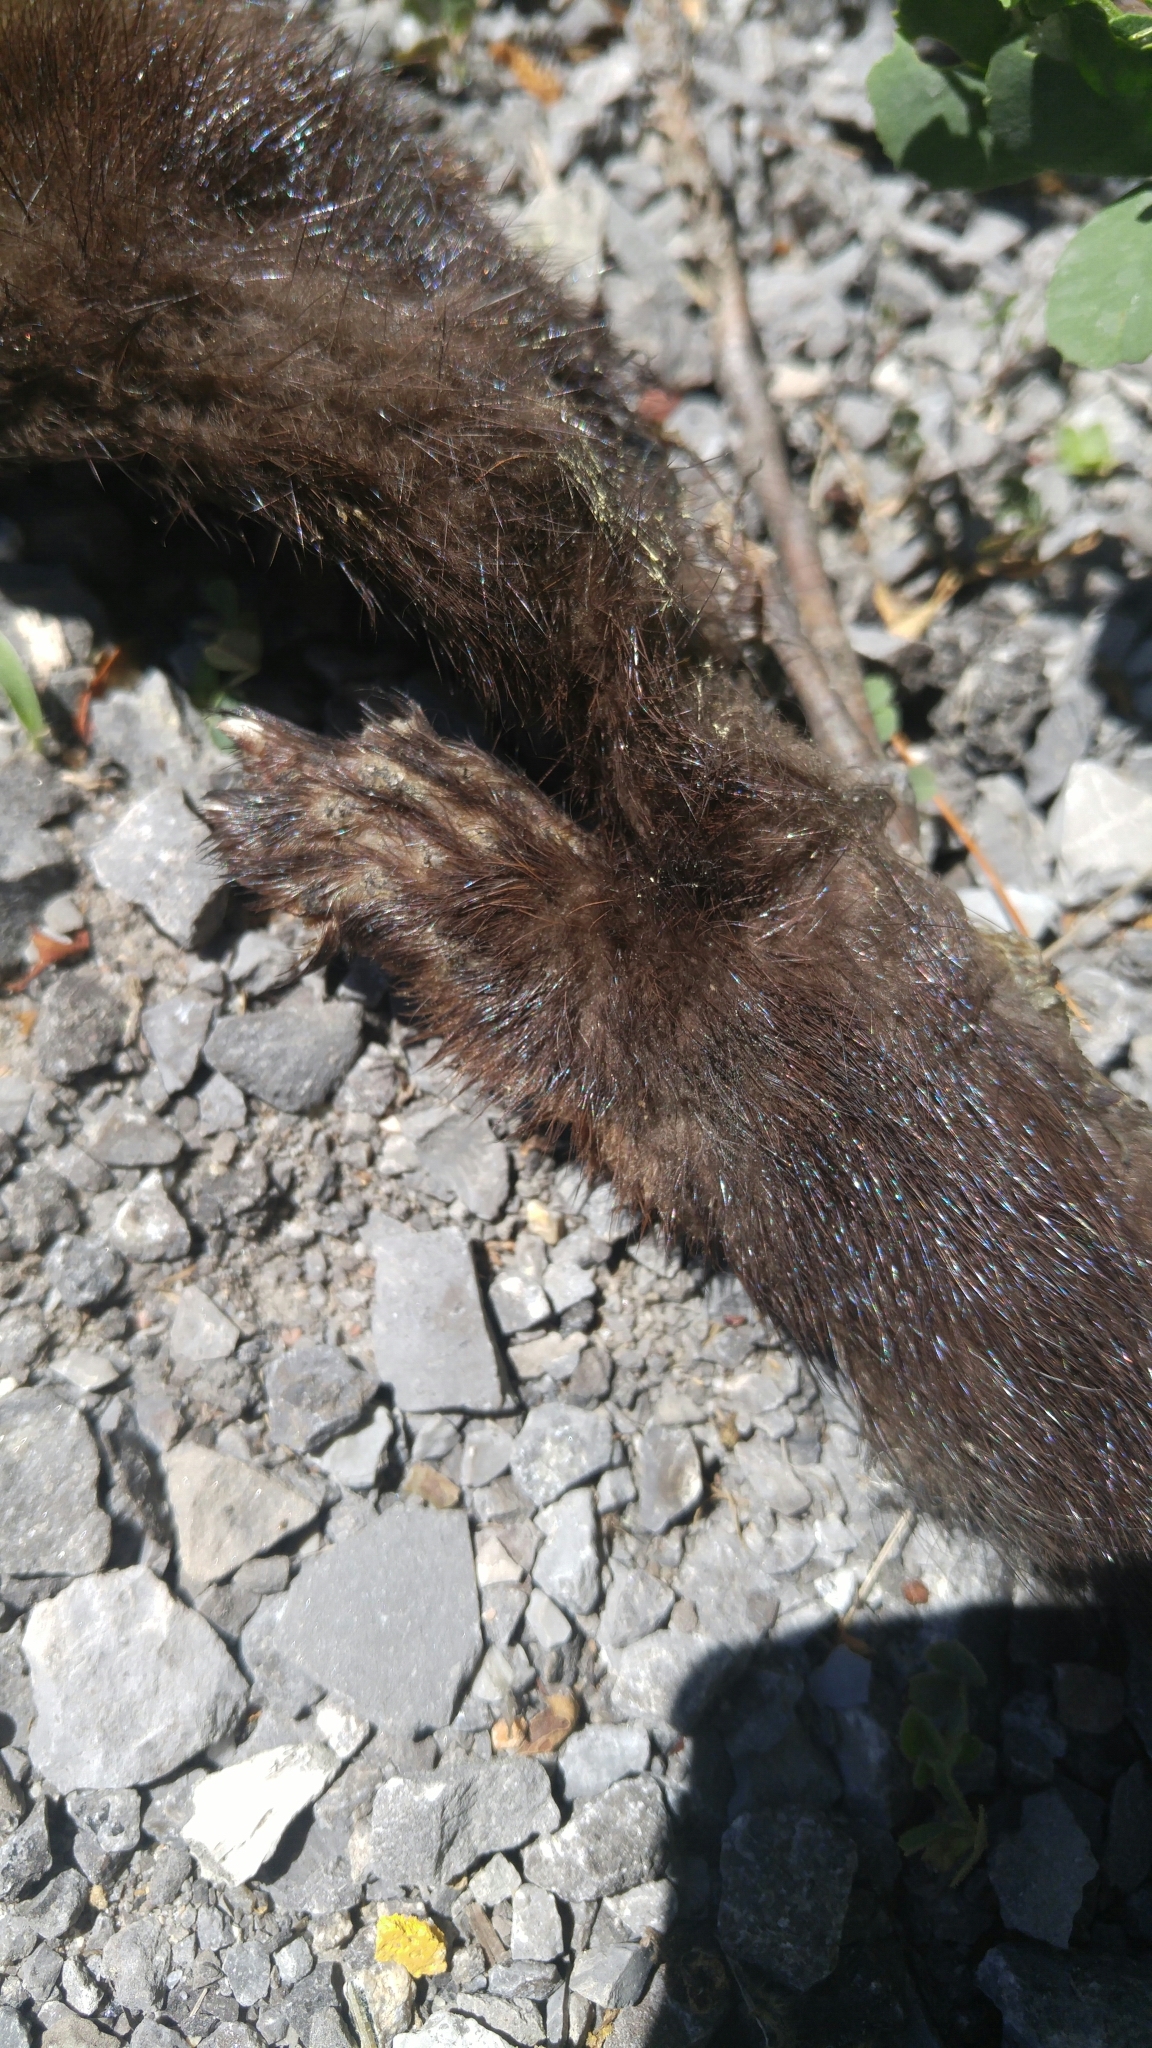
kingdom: Animalia
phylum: Chordata
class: Mammalia
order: Carnivora
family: Mustelidae
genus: Mustela
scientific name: Mustela
